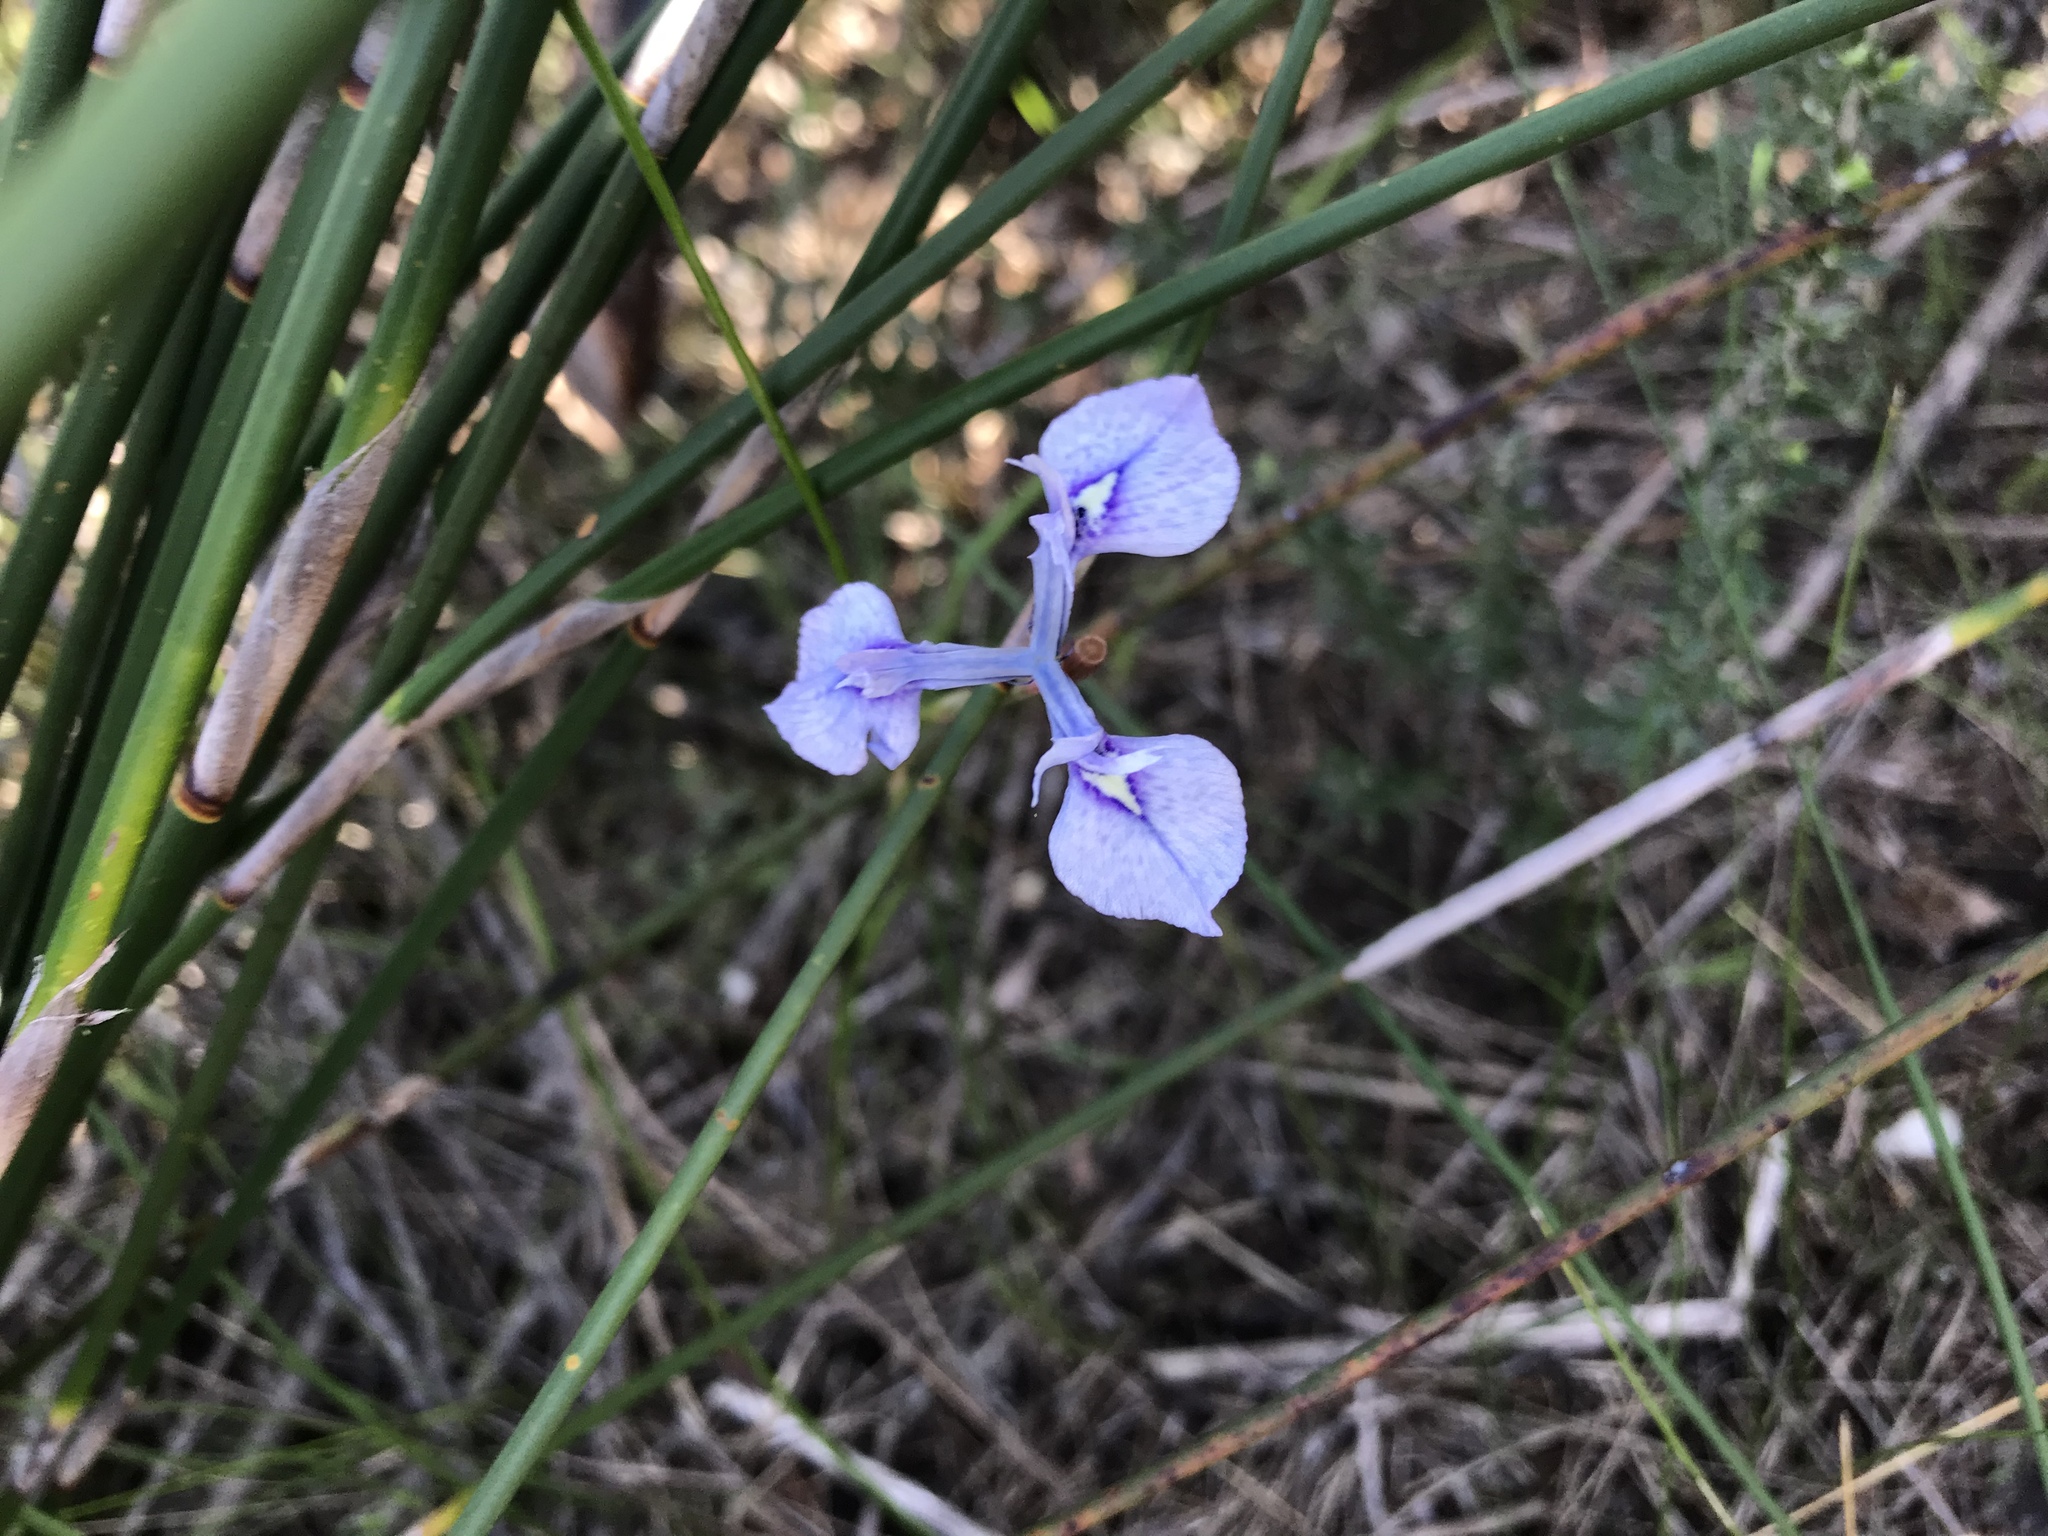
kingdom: Plantae
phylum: Tracheophyta
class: Liliopsida
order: Asparagales
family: Iridaceae
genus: Moraea
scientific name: Moraea tripetala
